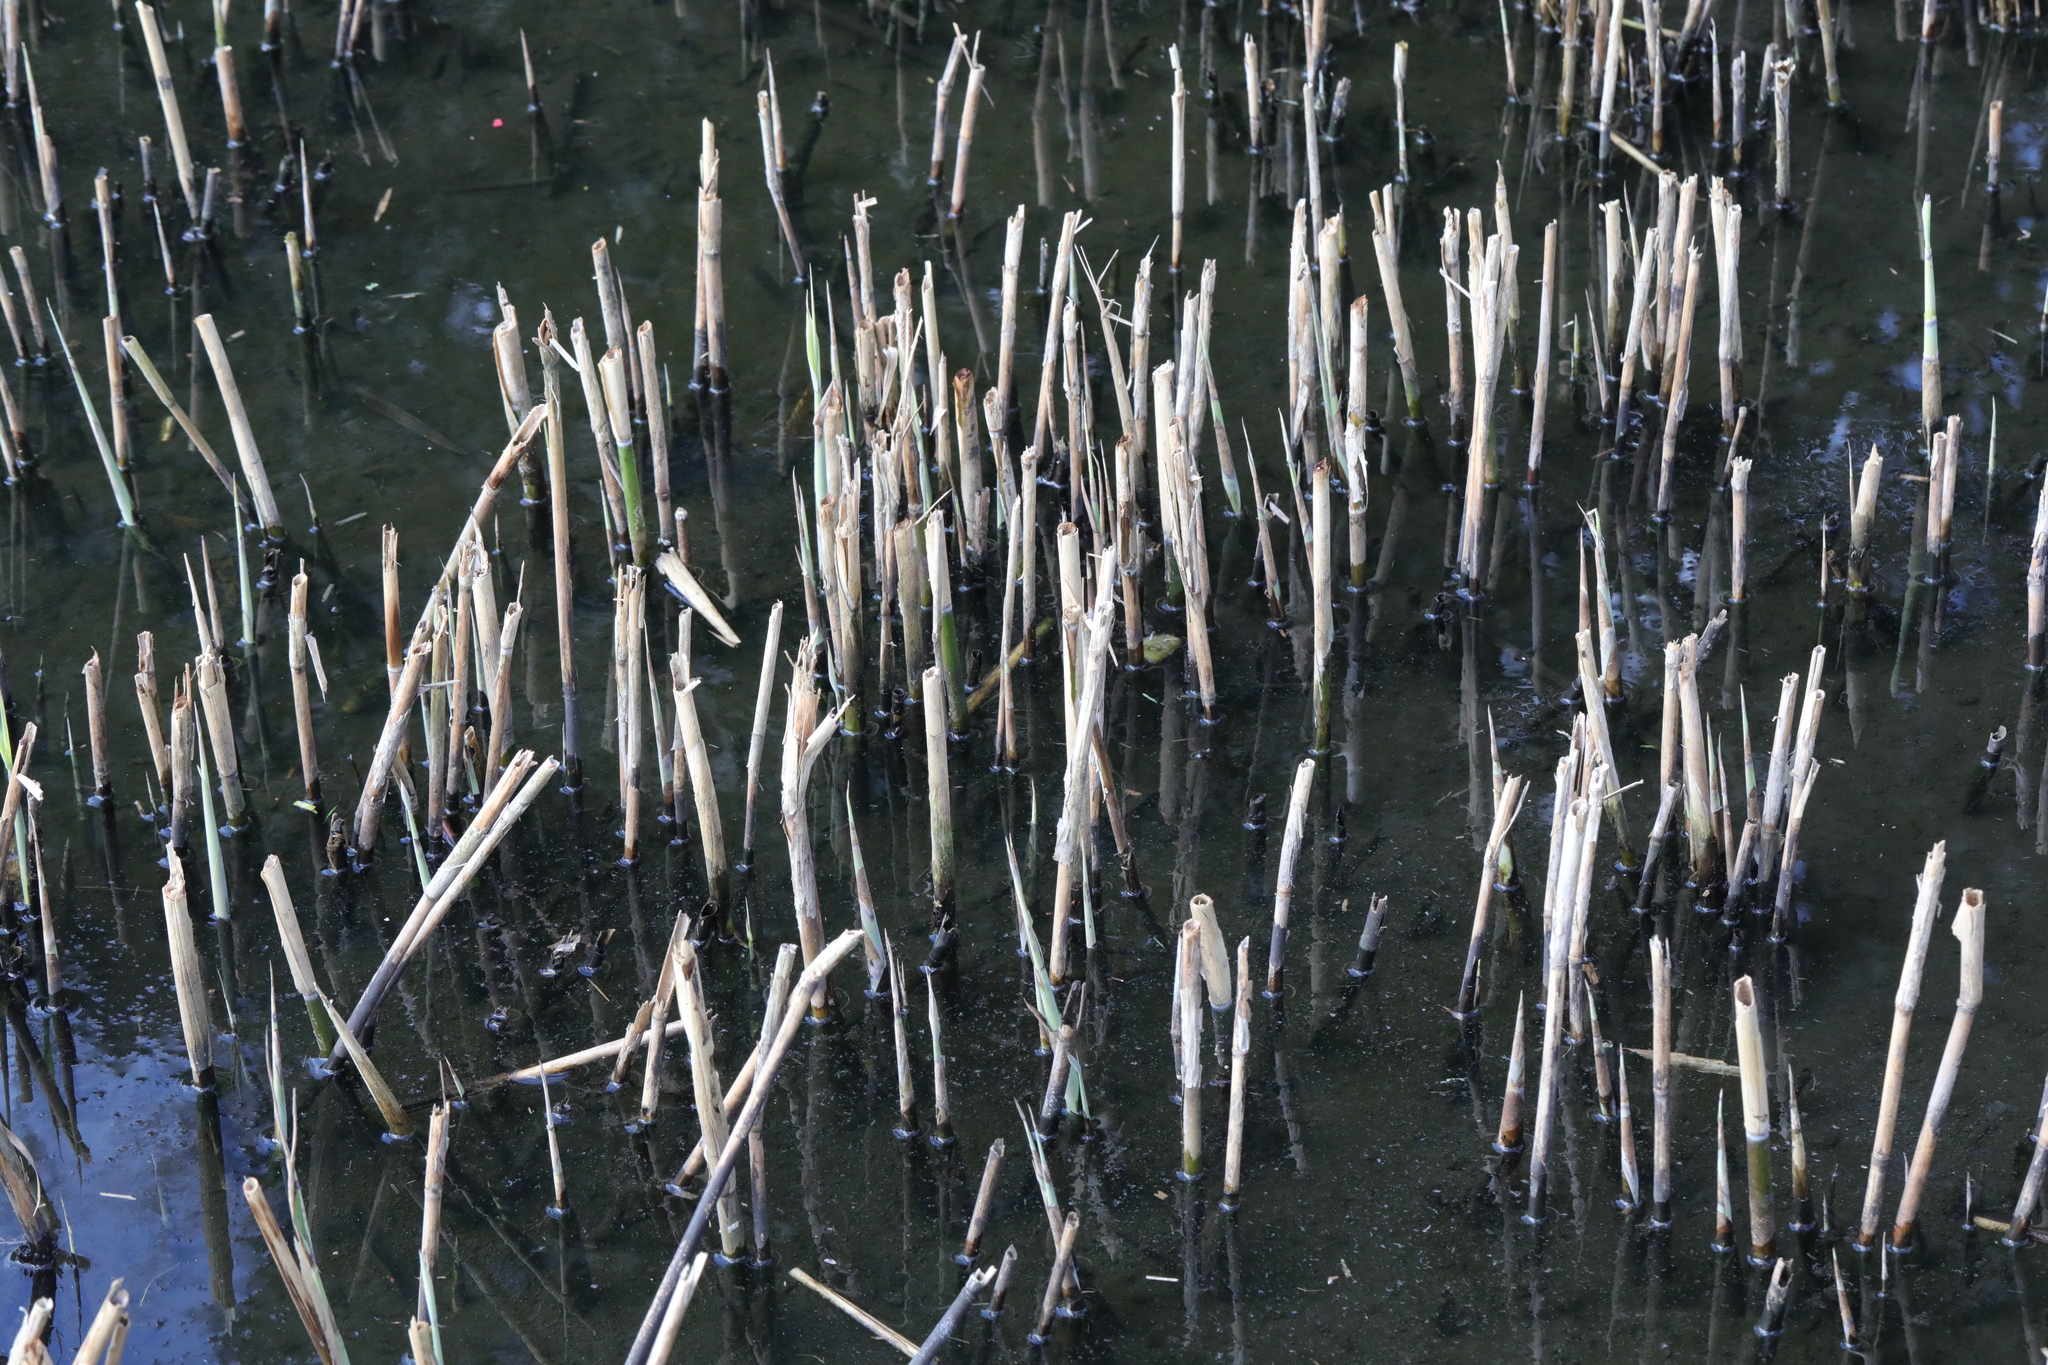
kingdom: Plantae
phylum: Tracheophyta
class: Liliopsida
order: Poales
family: Poaceae
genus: Phragmites
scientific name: Phragmites australis
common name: Common reed
